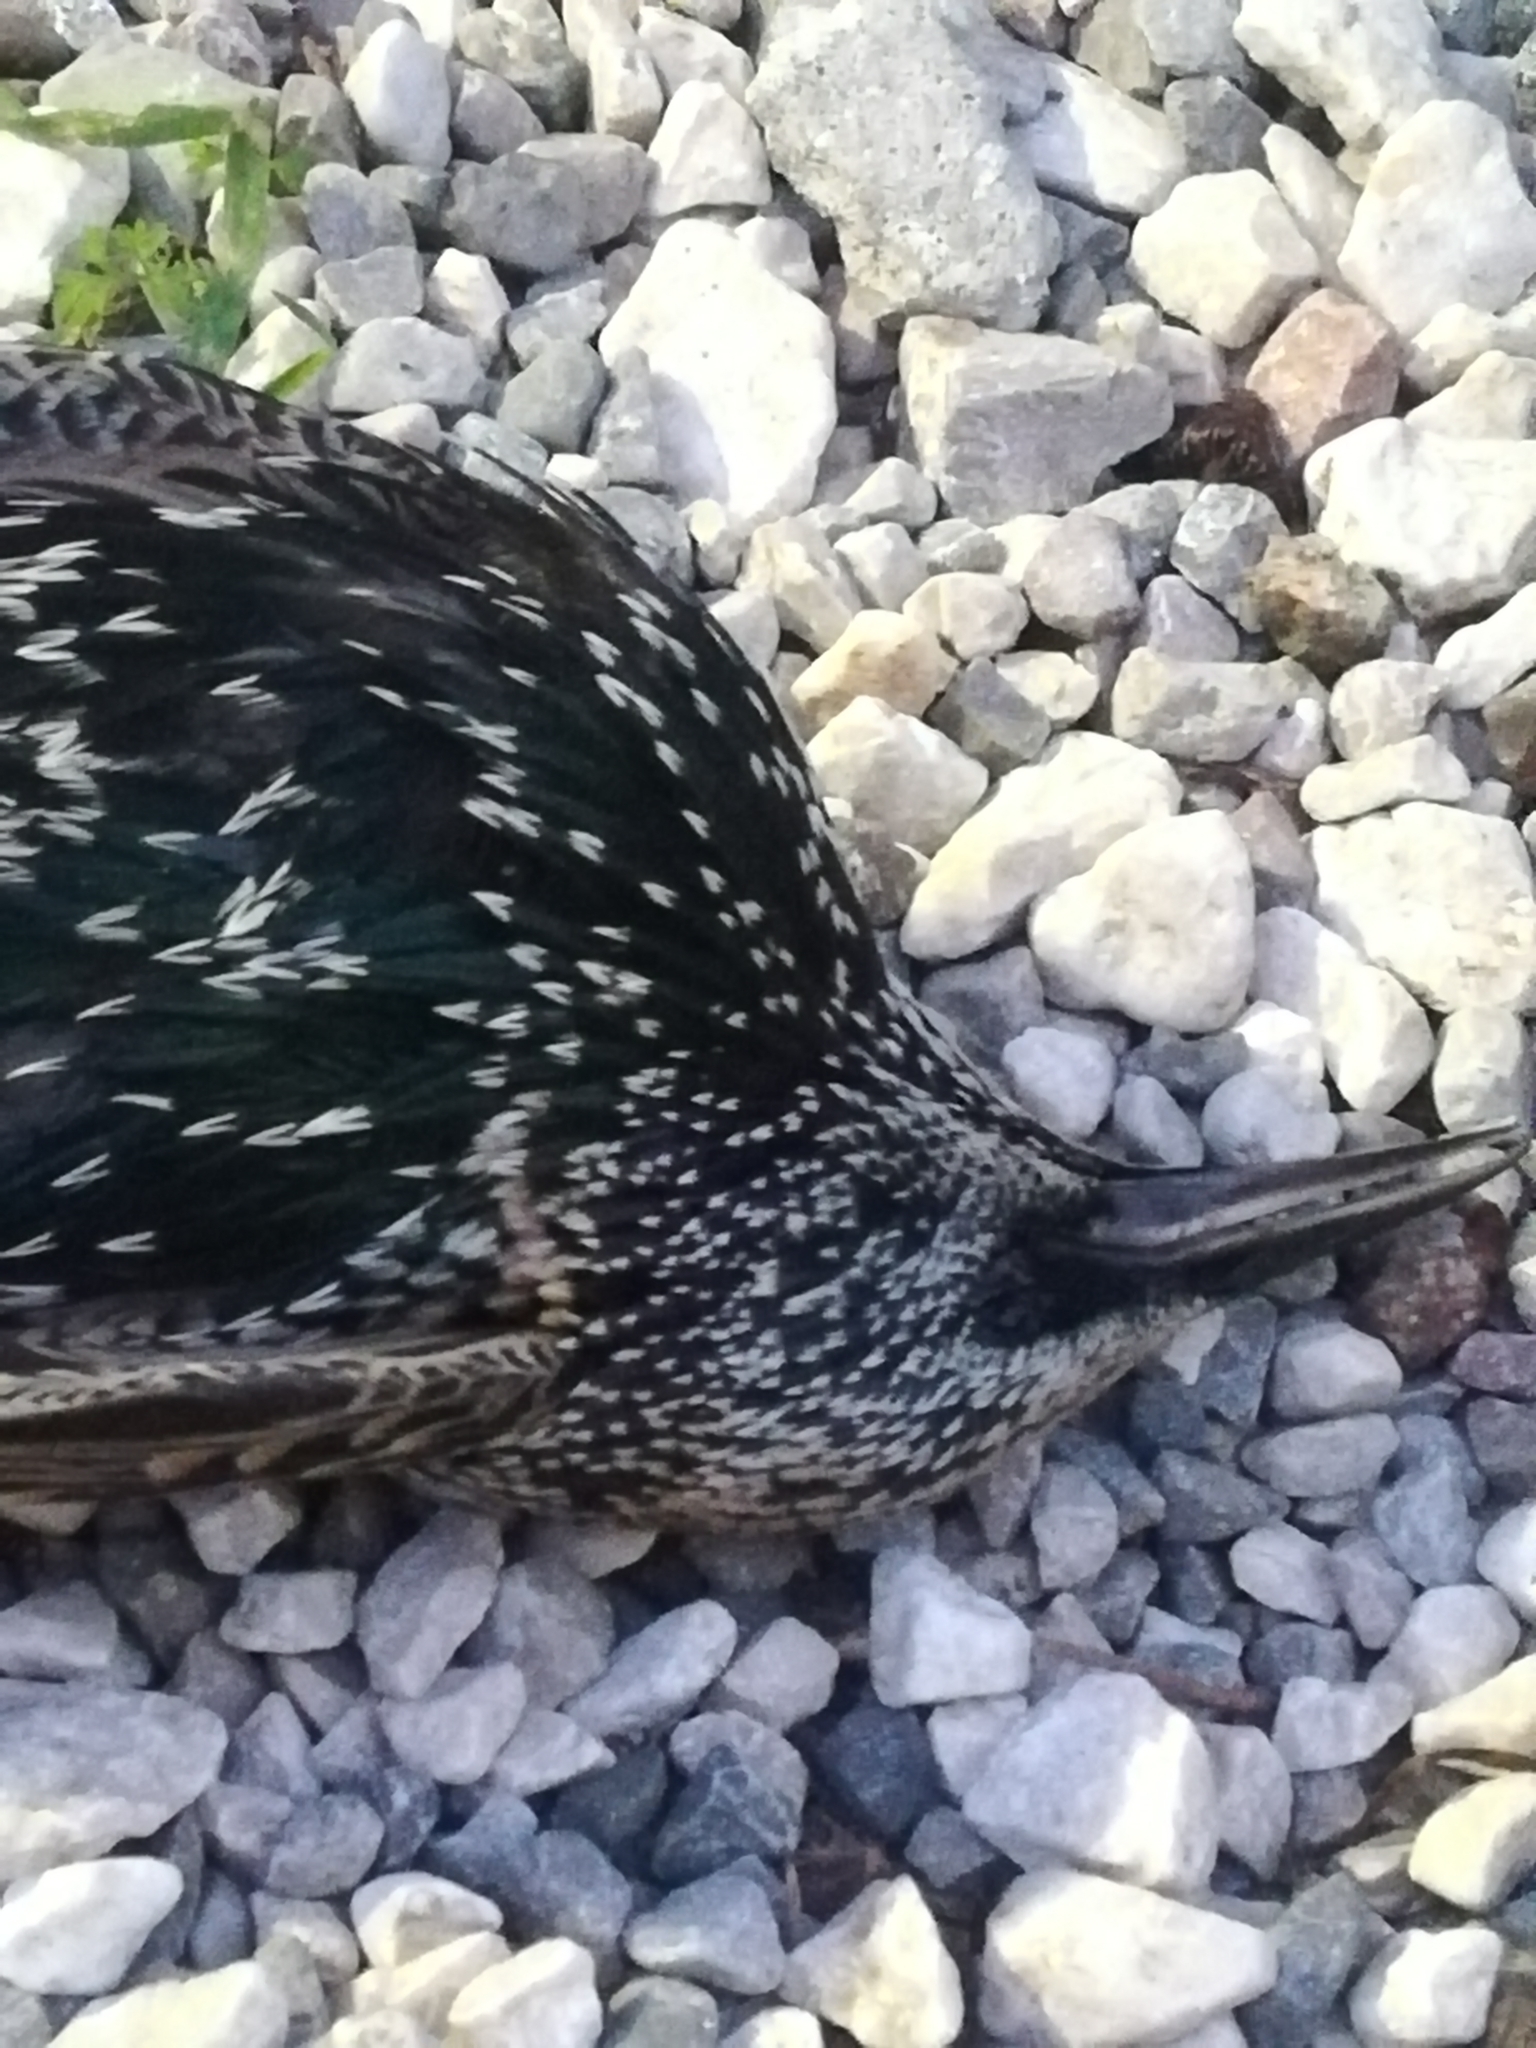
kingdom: Animalia
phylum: Chordata
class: Aves
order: Passeriformes
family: Sturnidae
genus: Sturnus
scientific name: Sturnus vulgaris
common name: Common starling
